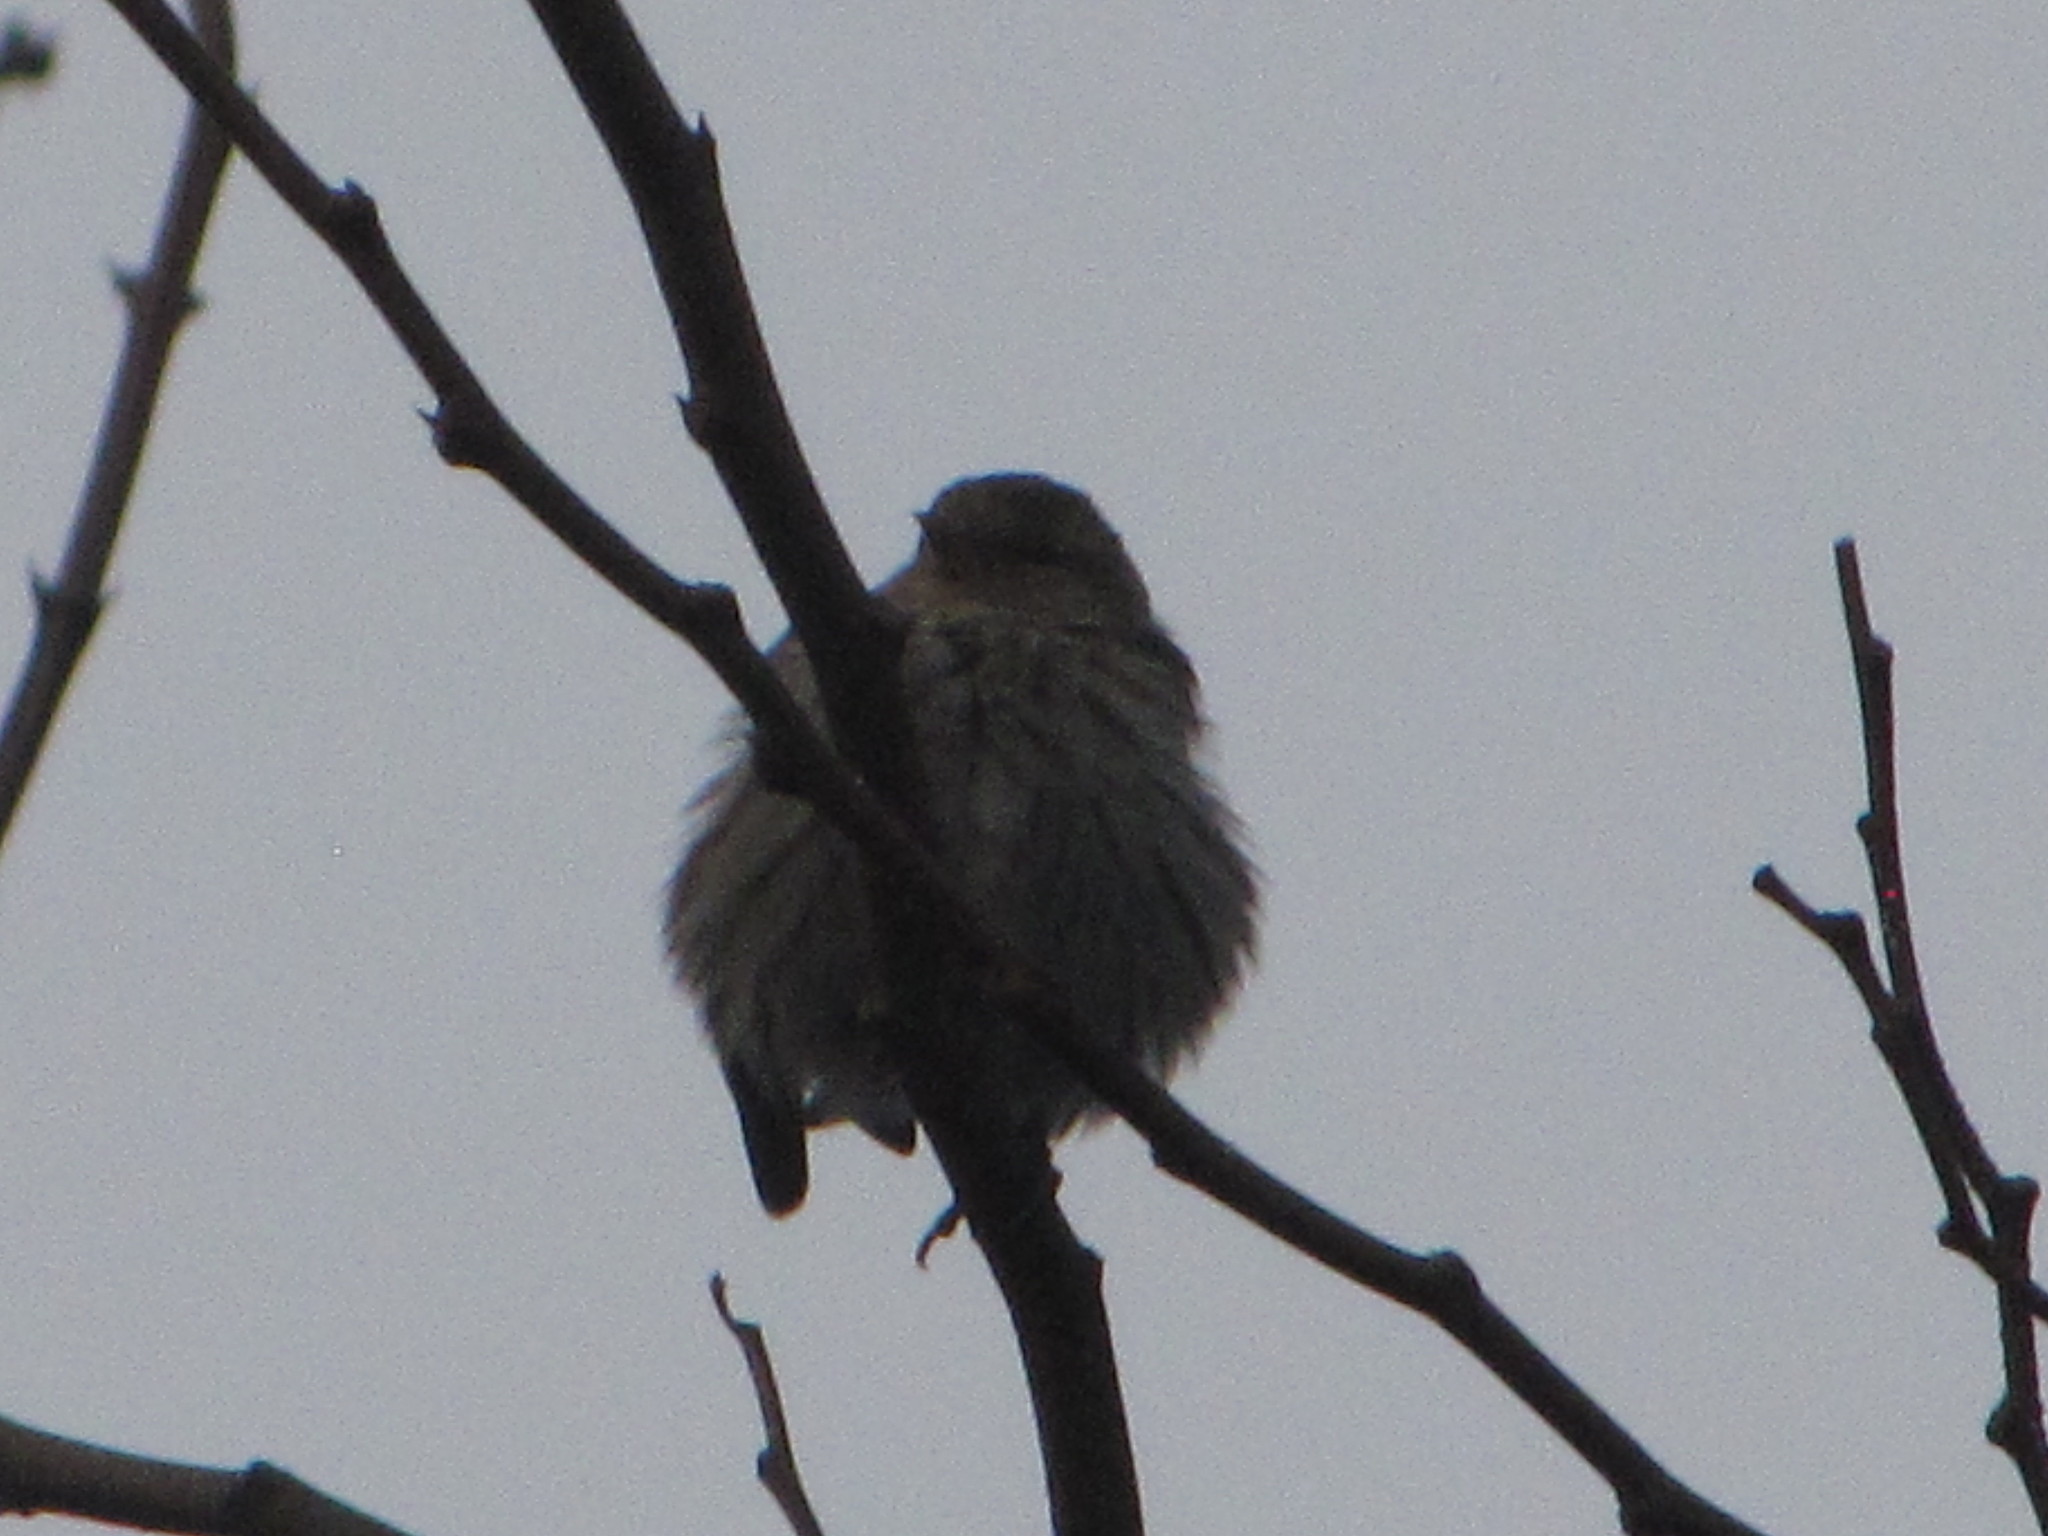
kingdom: Animalia
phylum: Chordata
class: Aves
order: Passeriformes
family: Fringillidae
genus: Spinus
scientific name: Spinus pinus
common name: Pine siskin
